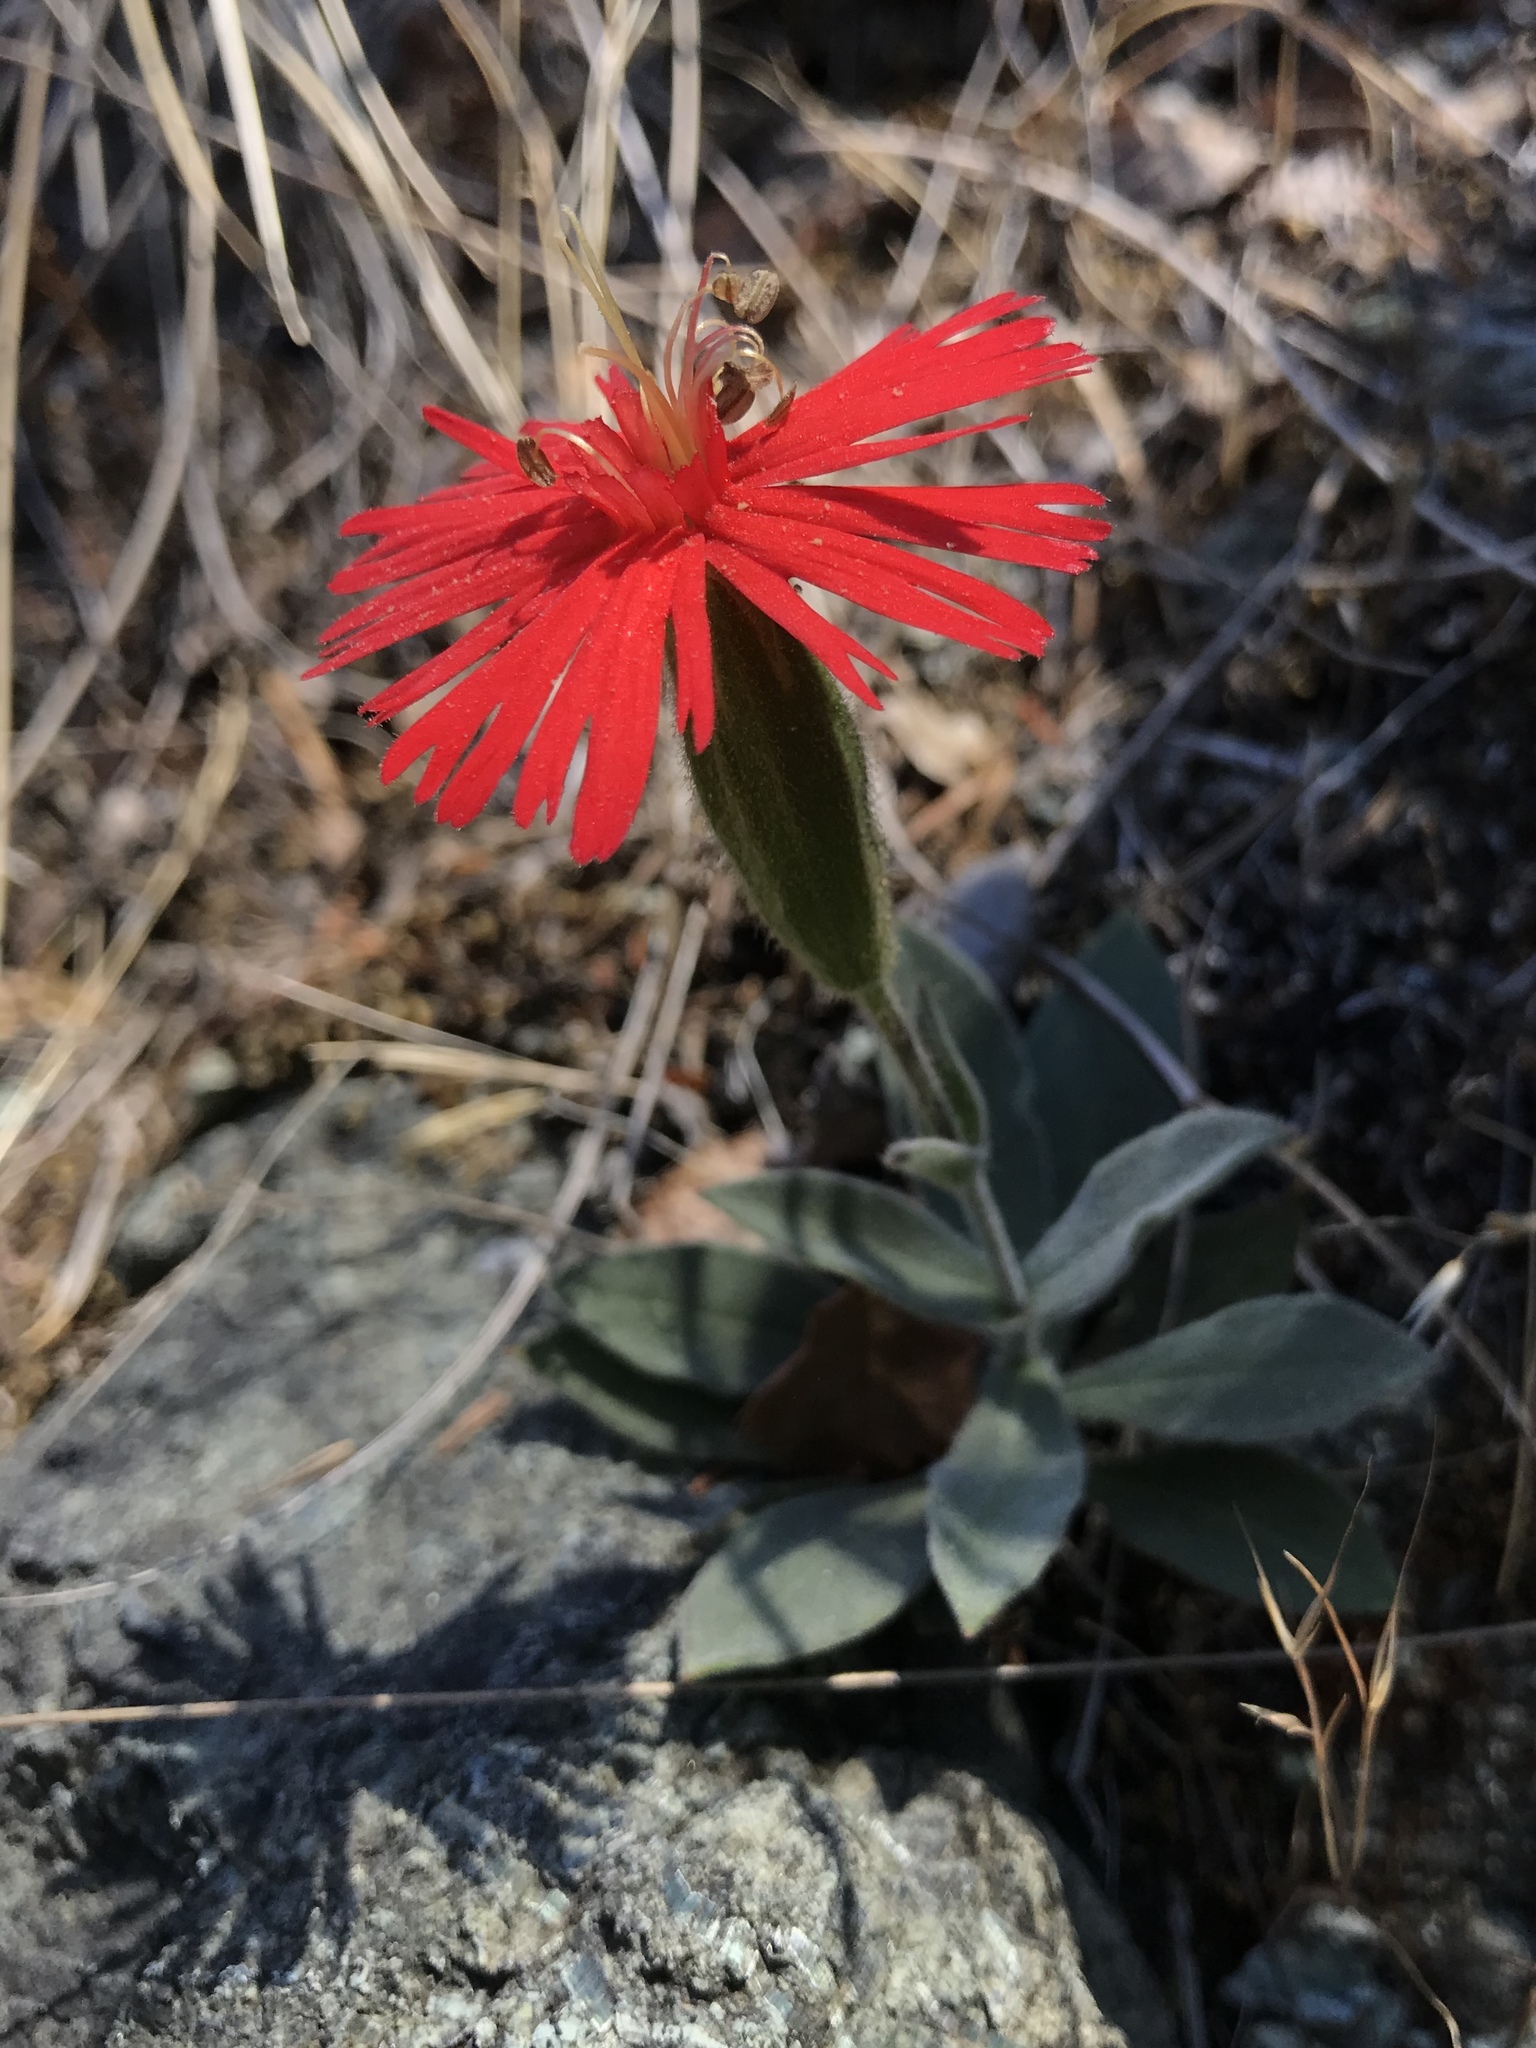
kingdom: Plantae
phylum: Tracheophyta
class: Magnoliopsida
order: Caryophyllales
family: Caryophyllaceae
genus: Silene
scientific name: Silene laciniata
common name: Indian-pink
